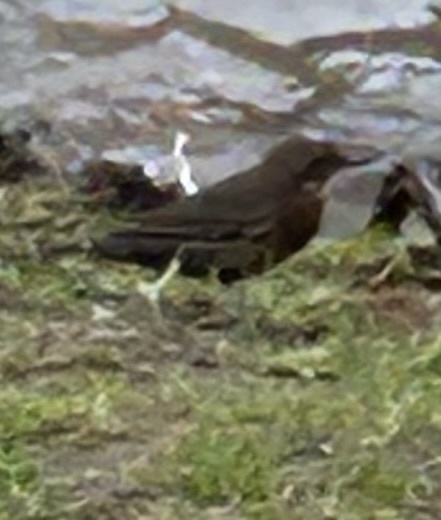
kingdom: Animalia
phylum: Chordata
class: Aves
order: Passeriformes
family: Turdidae
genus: Turdus
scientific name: Turdus merula
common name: Common blackbird
